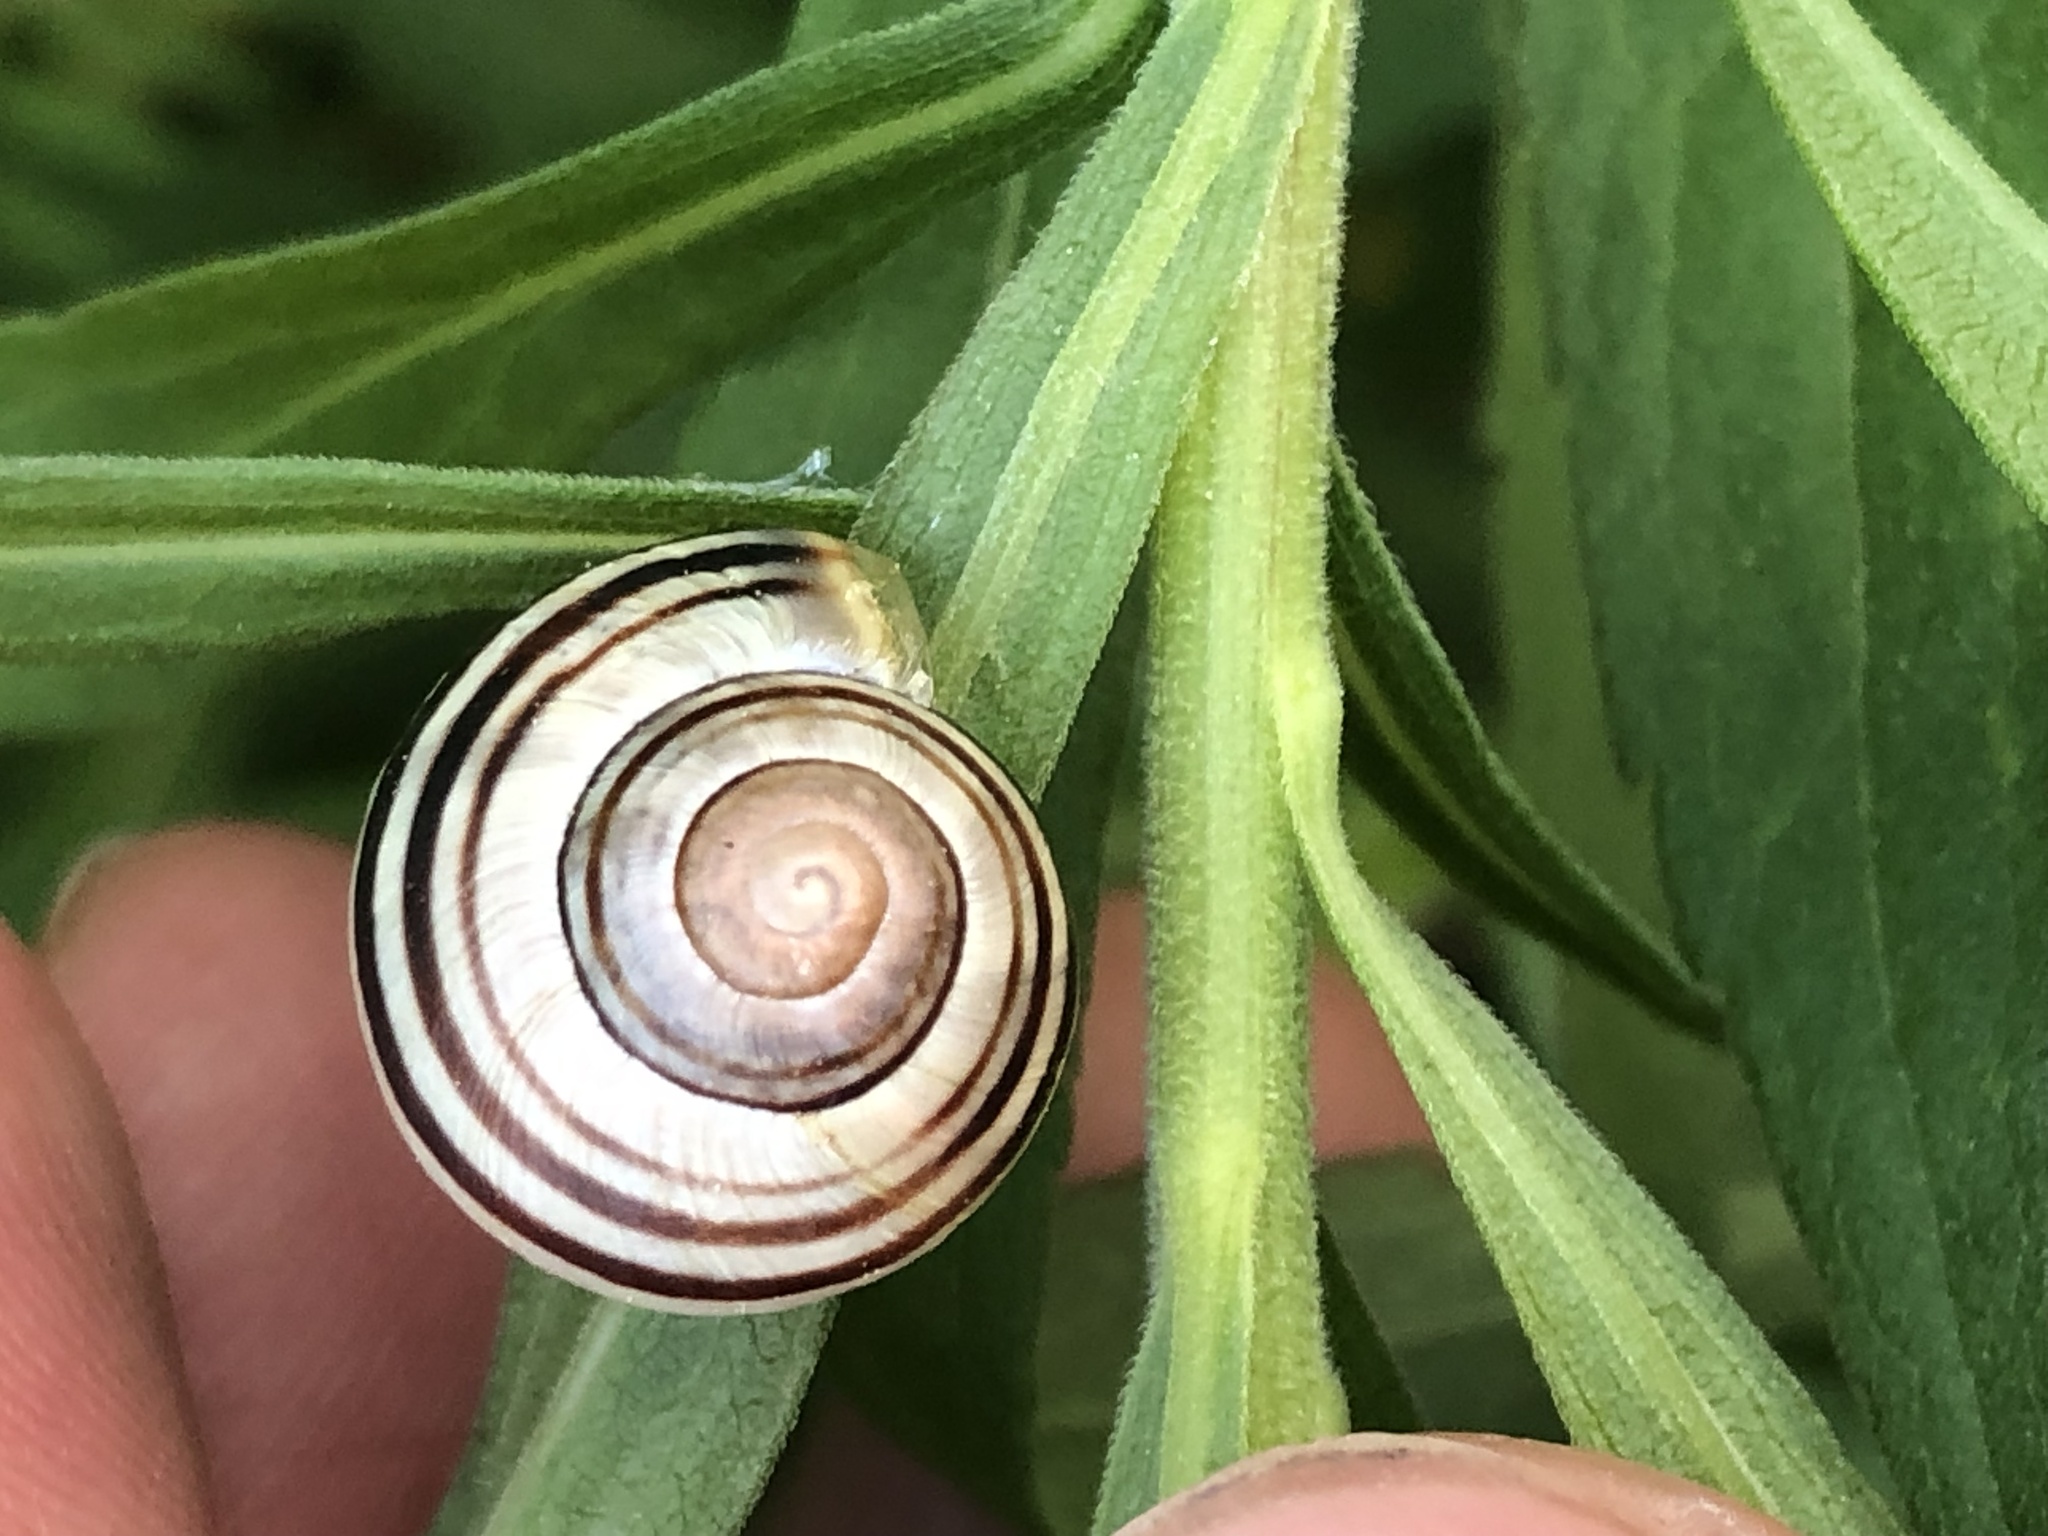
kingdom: Animalia
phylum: Mollusca
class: Gastropoda
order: Stylommatophora
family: Helicidae
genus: Cepaea
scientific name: Cepaea nemoralis
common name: Grovesnail
